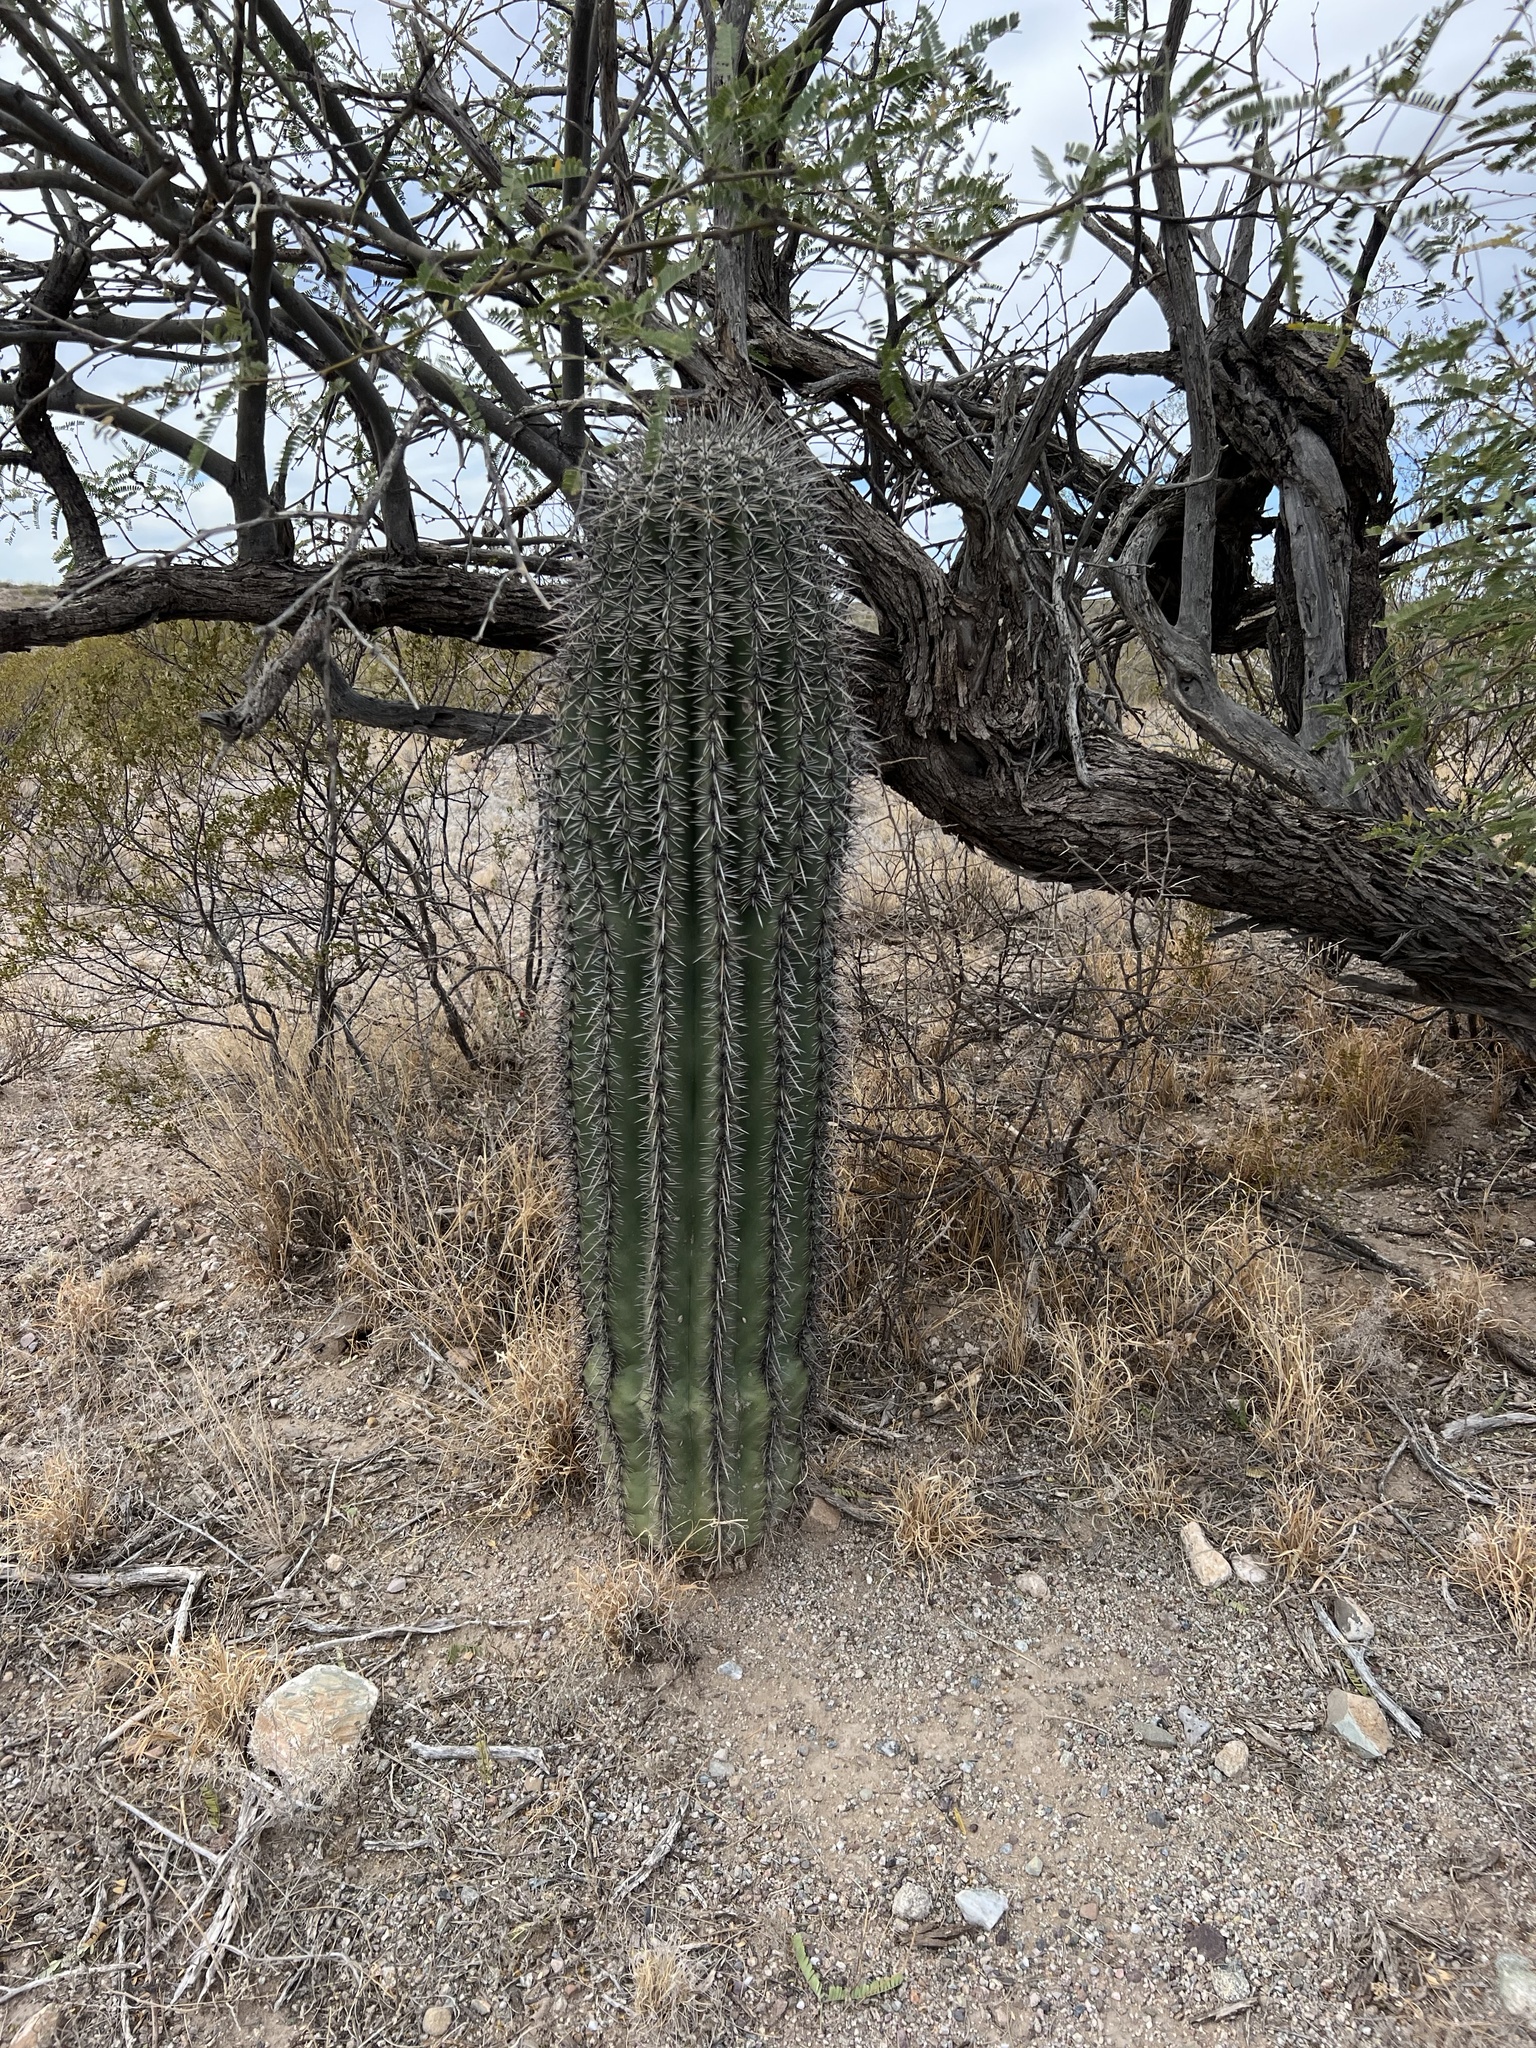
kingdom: Plantae
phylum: Tracheophyta
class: Magnoliopsida
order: Caryophyllales
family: Cactaceae
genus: Carnegiea
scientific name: Carnegiea gigantea
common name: Saguaro
